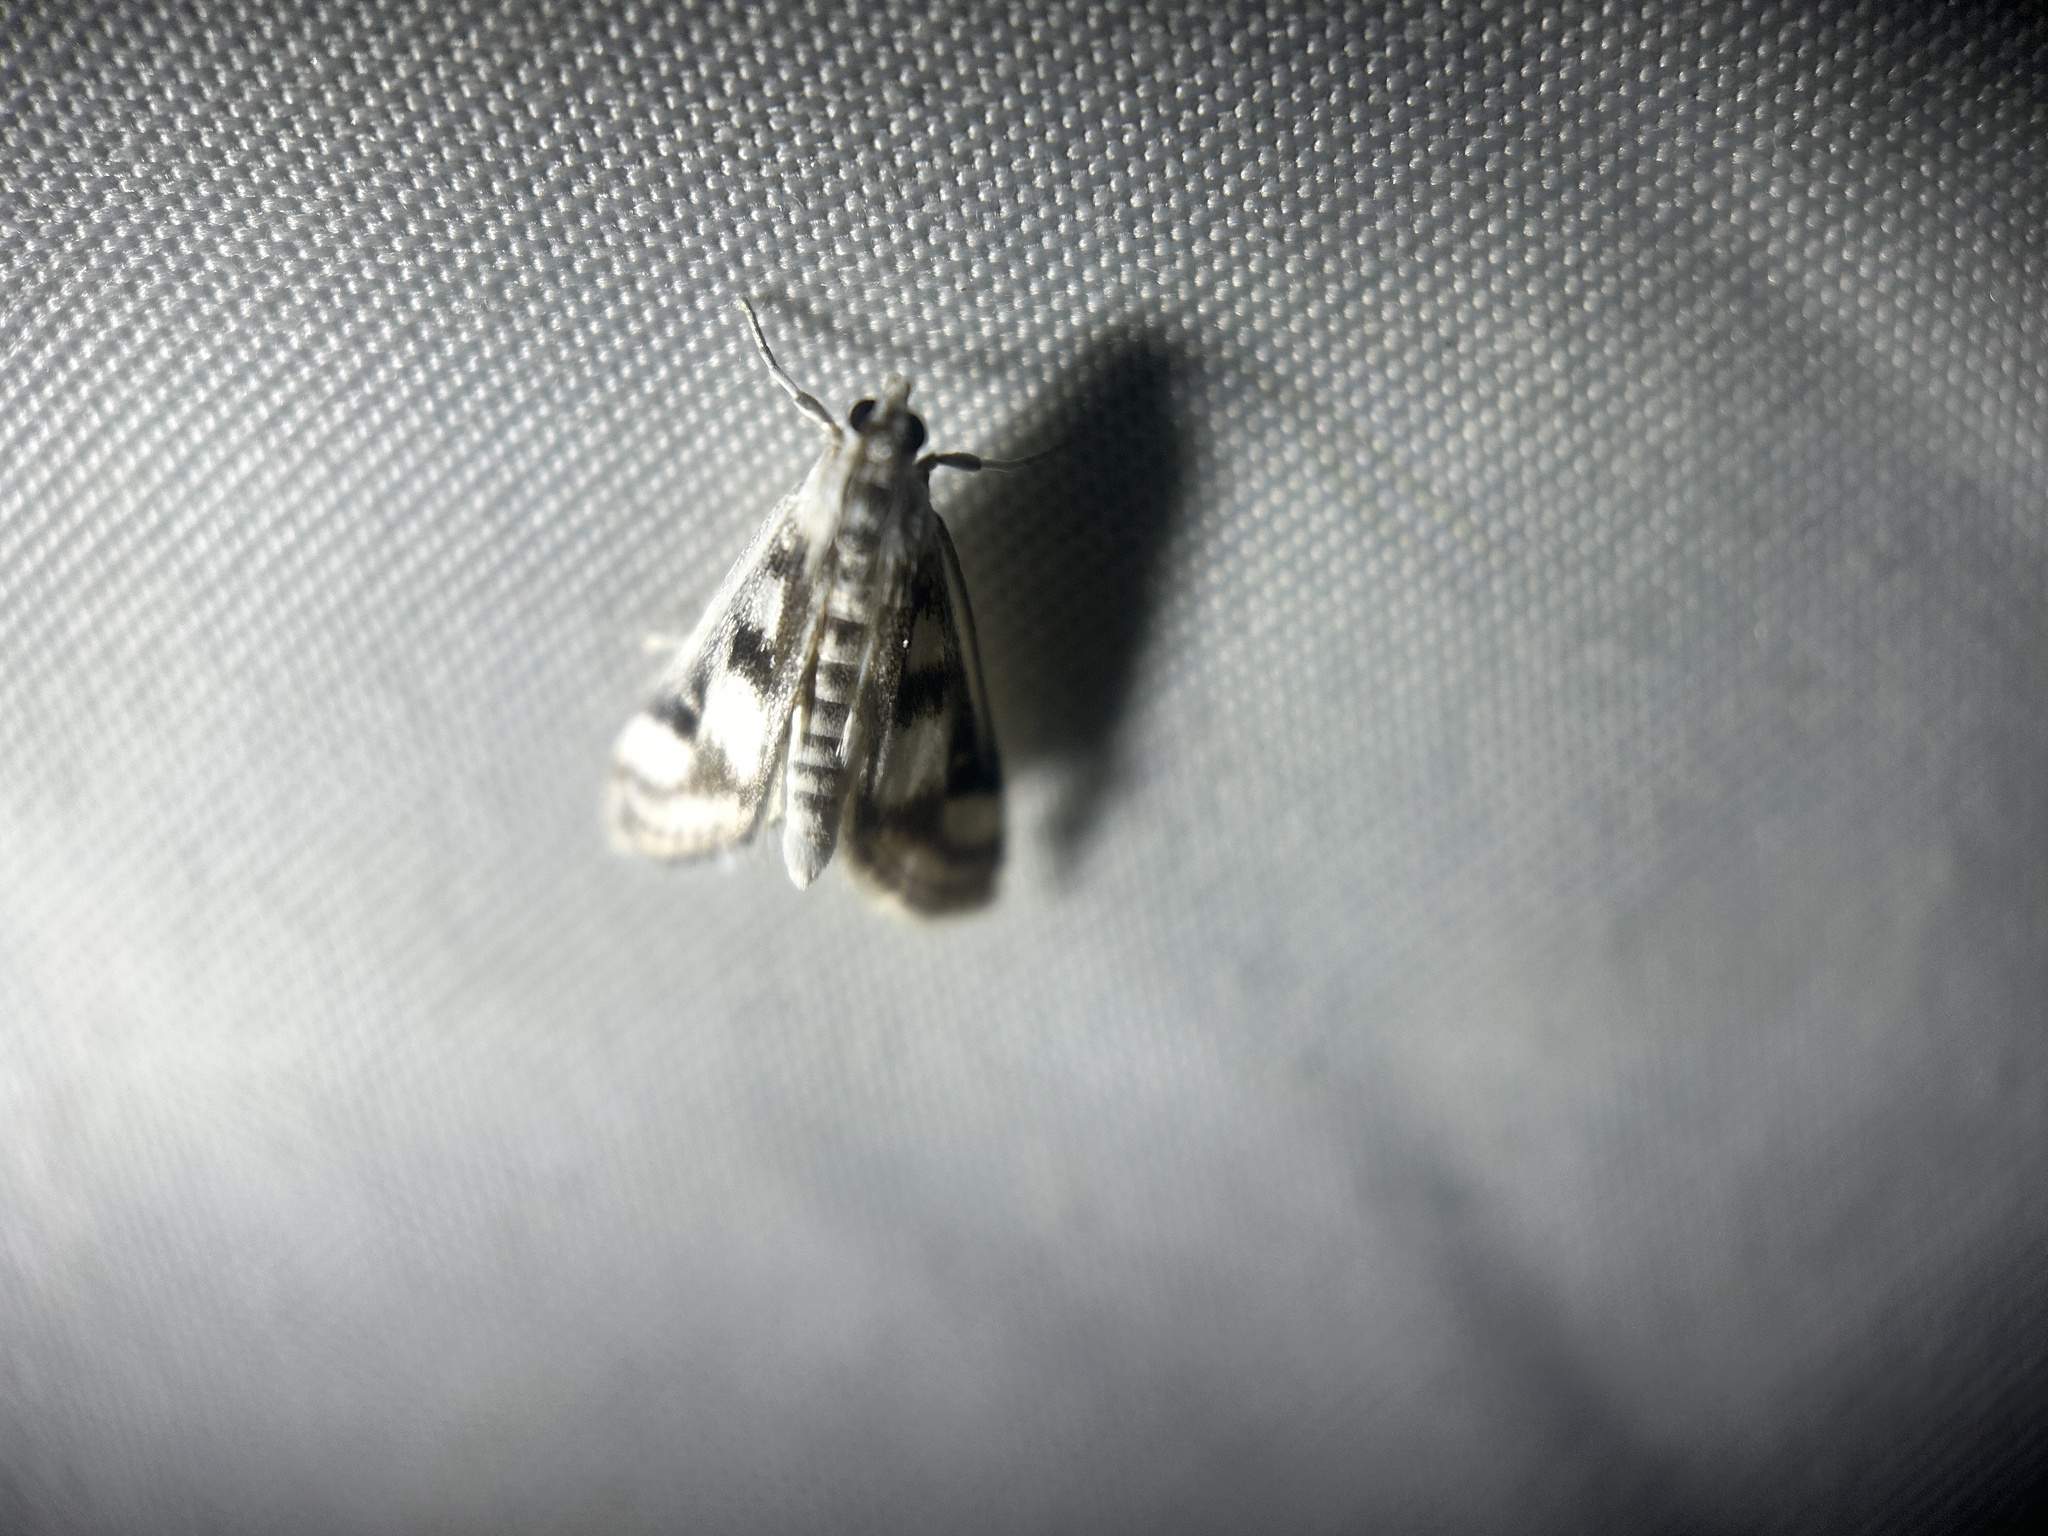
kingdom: Animalia
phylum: Arthropoda
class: Insecta
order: Lepidoptera
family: Crambidae
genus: Parapoynx
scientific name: Parapoynx maculalis
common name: Polymorphic pondweed moth
